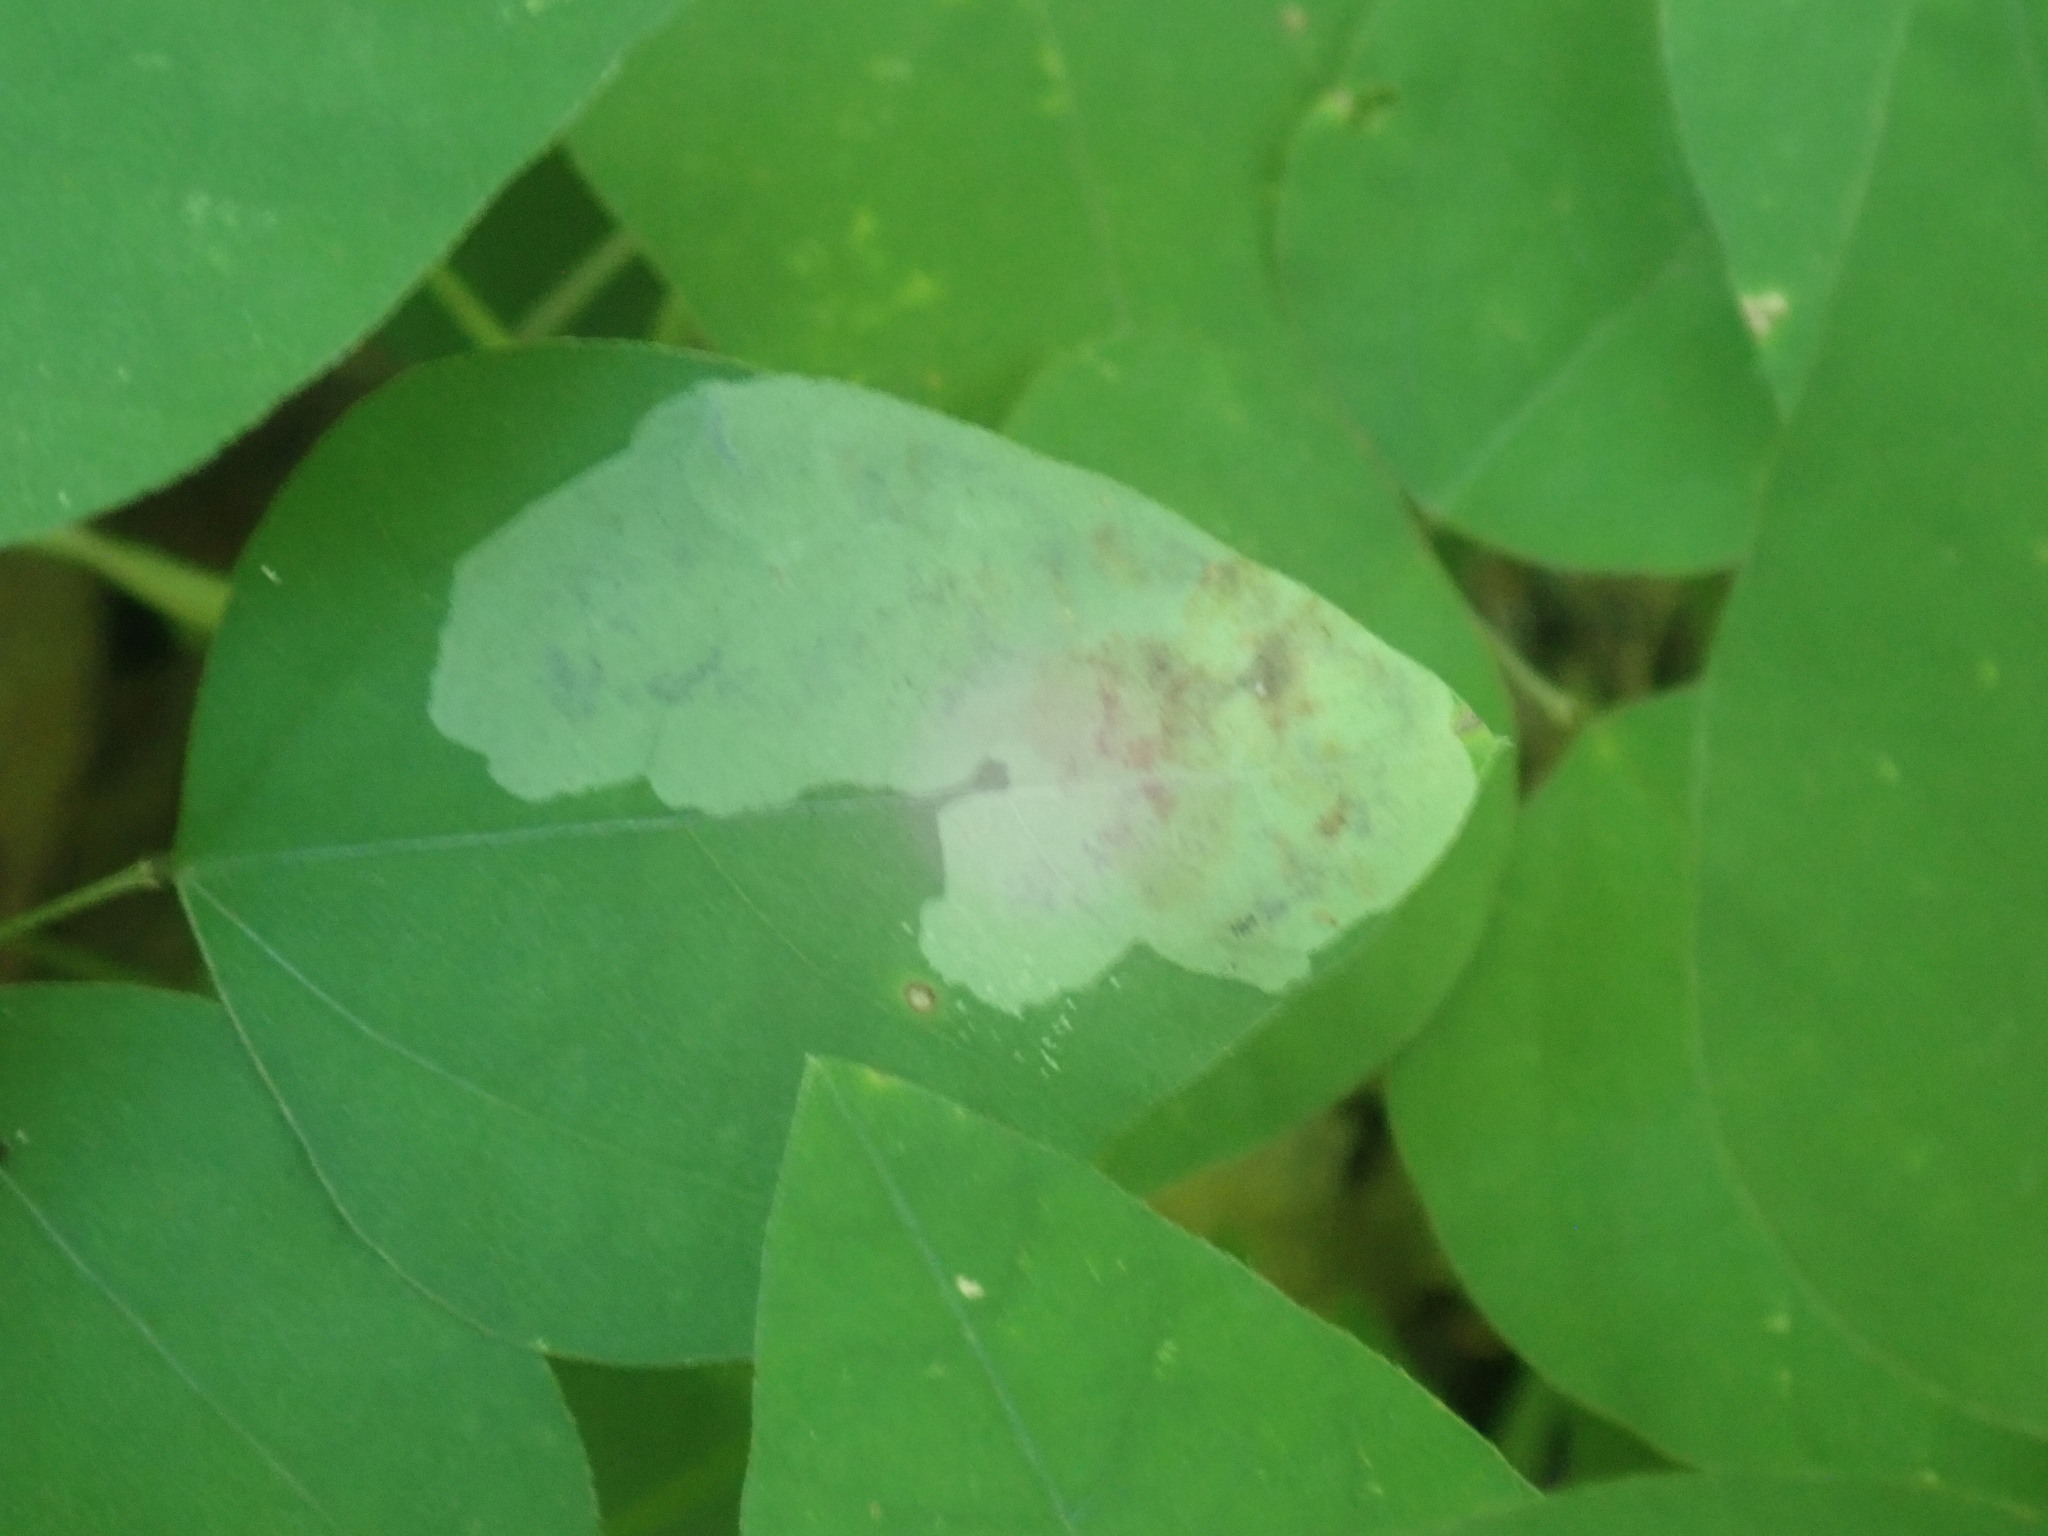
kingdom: Animalia
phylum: Arthropoda
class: Insecta
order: Lepidoptera
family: Gracillariidae
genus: Leucanthiza
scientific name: Leucanthiza amphicarpeaefoliella
